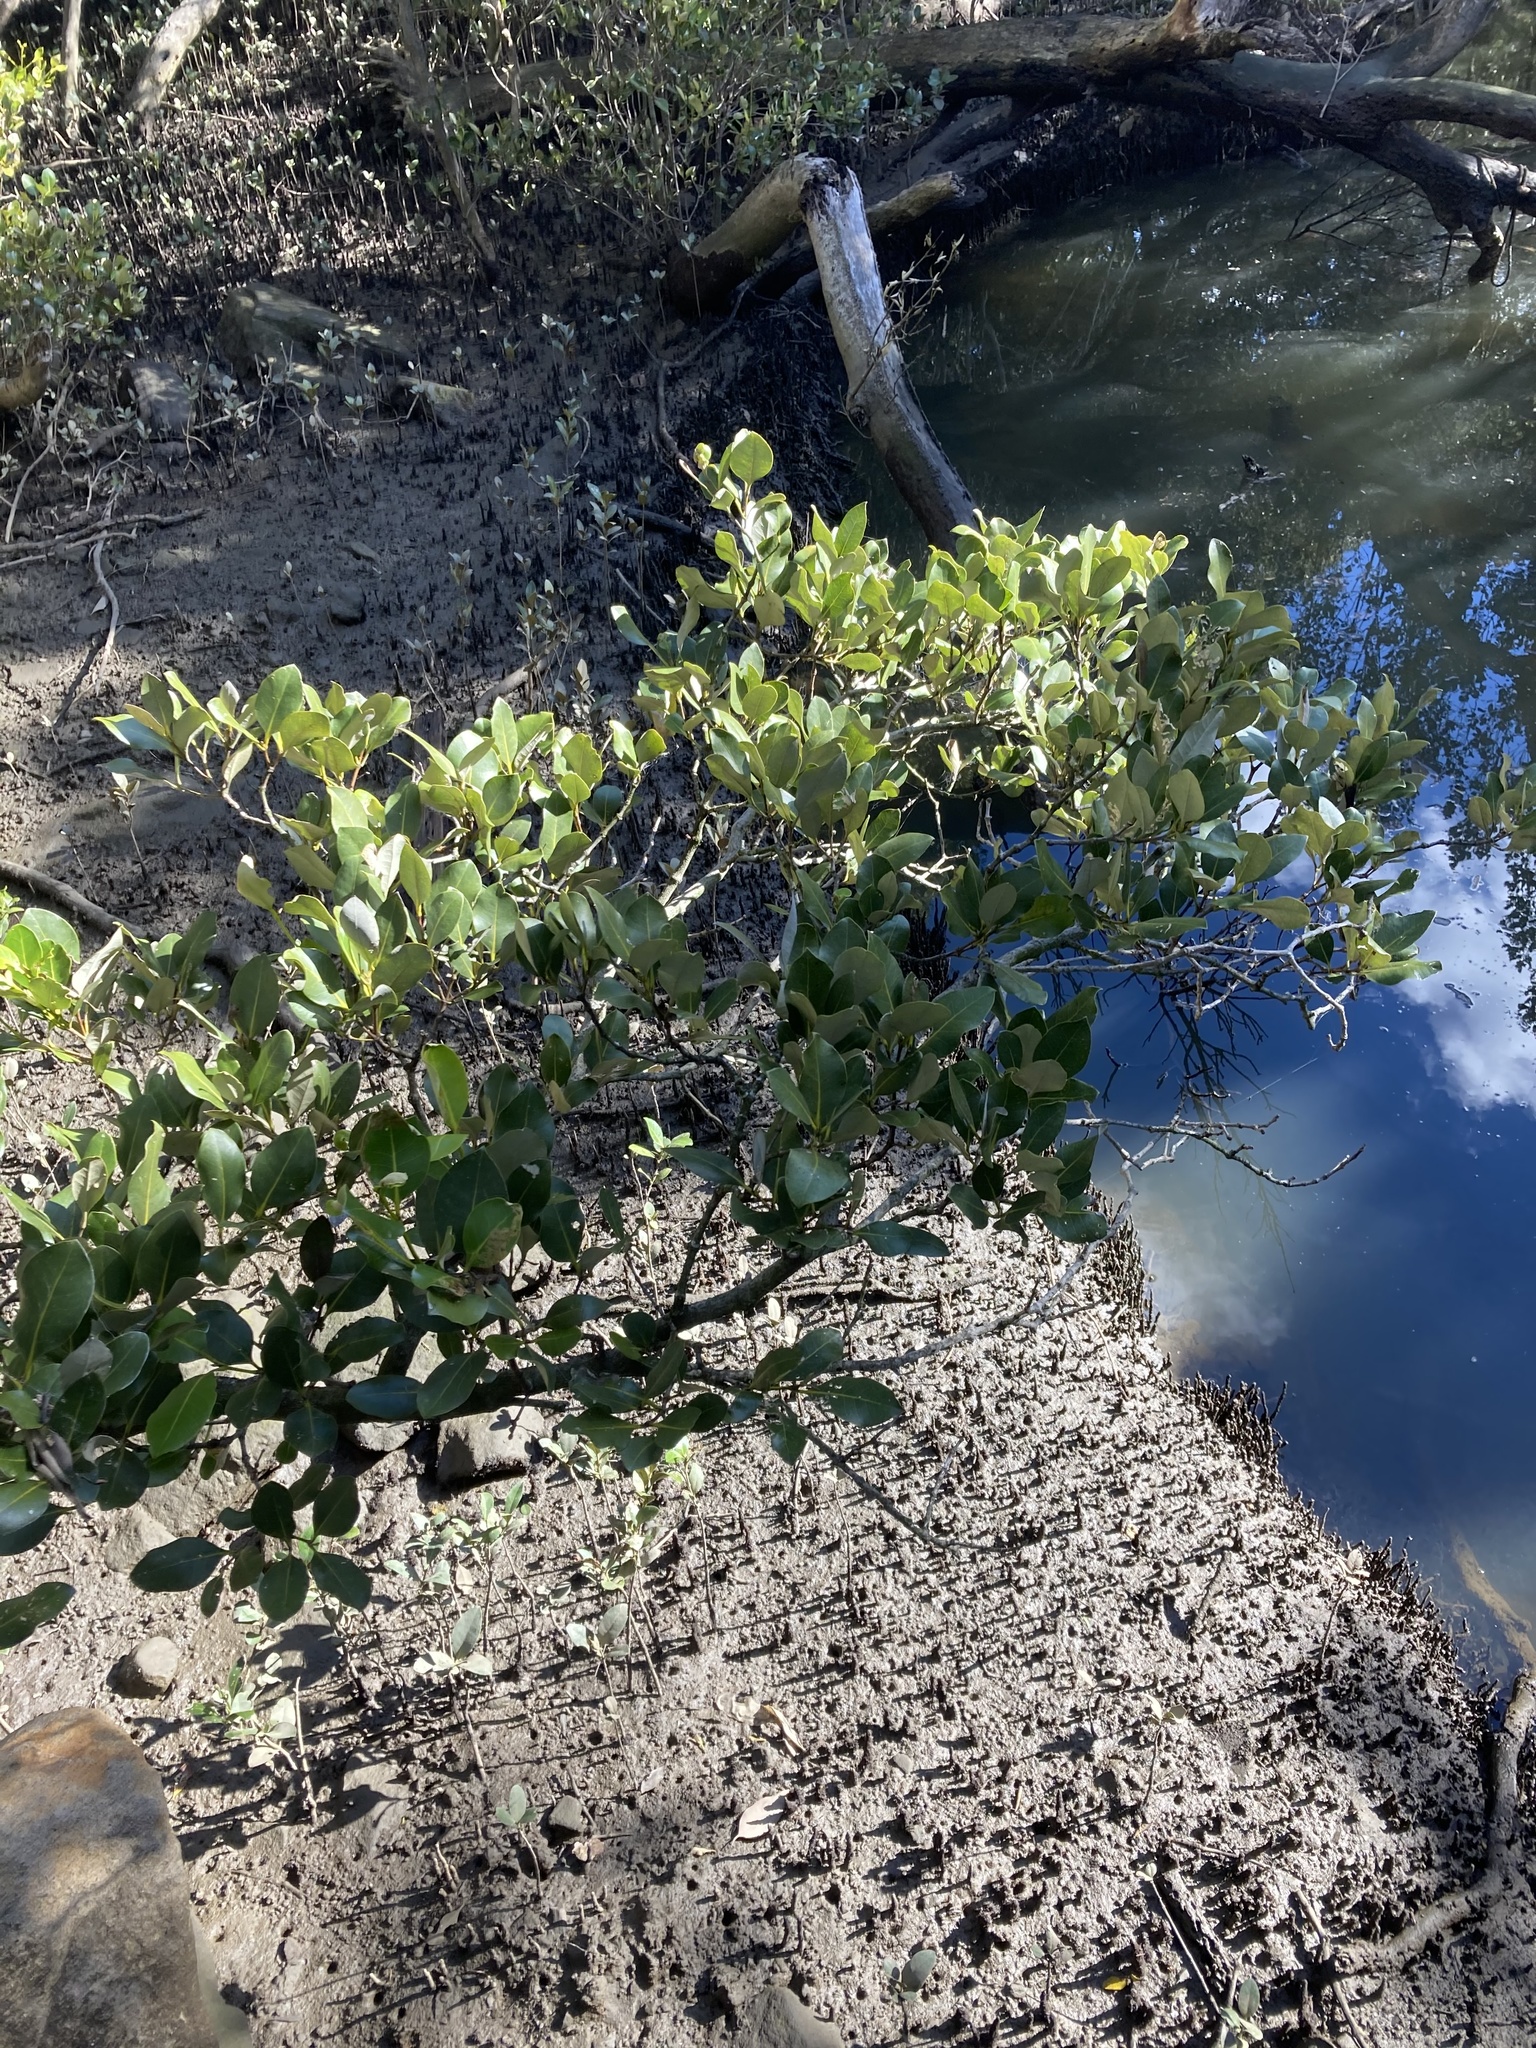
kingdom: Plantae
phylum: Tracheophyta
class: Magnoliopsida
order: Lamiales
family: Acanthaceae
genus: Avicennia
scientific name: Avicennia marina
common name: Gray mangrove
